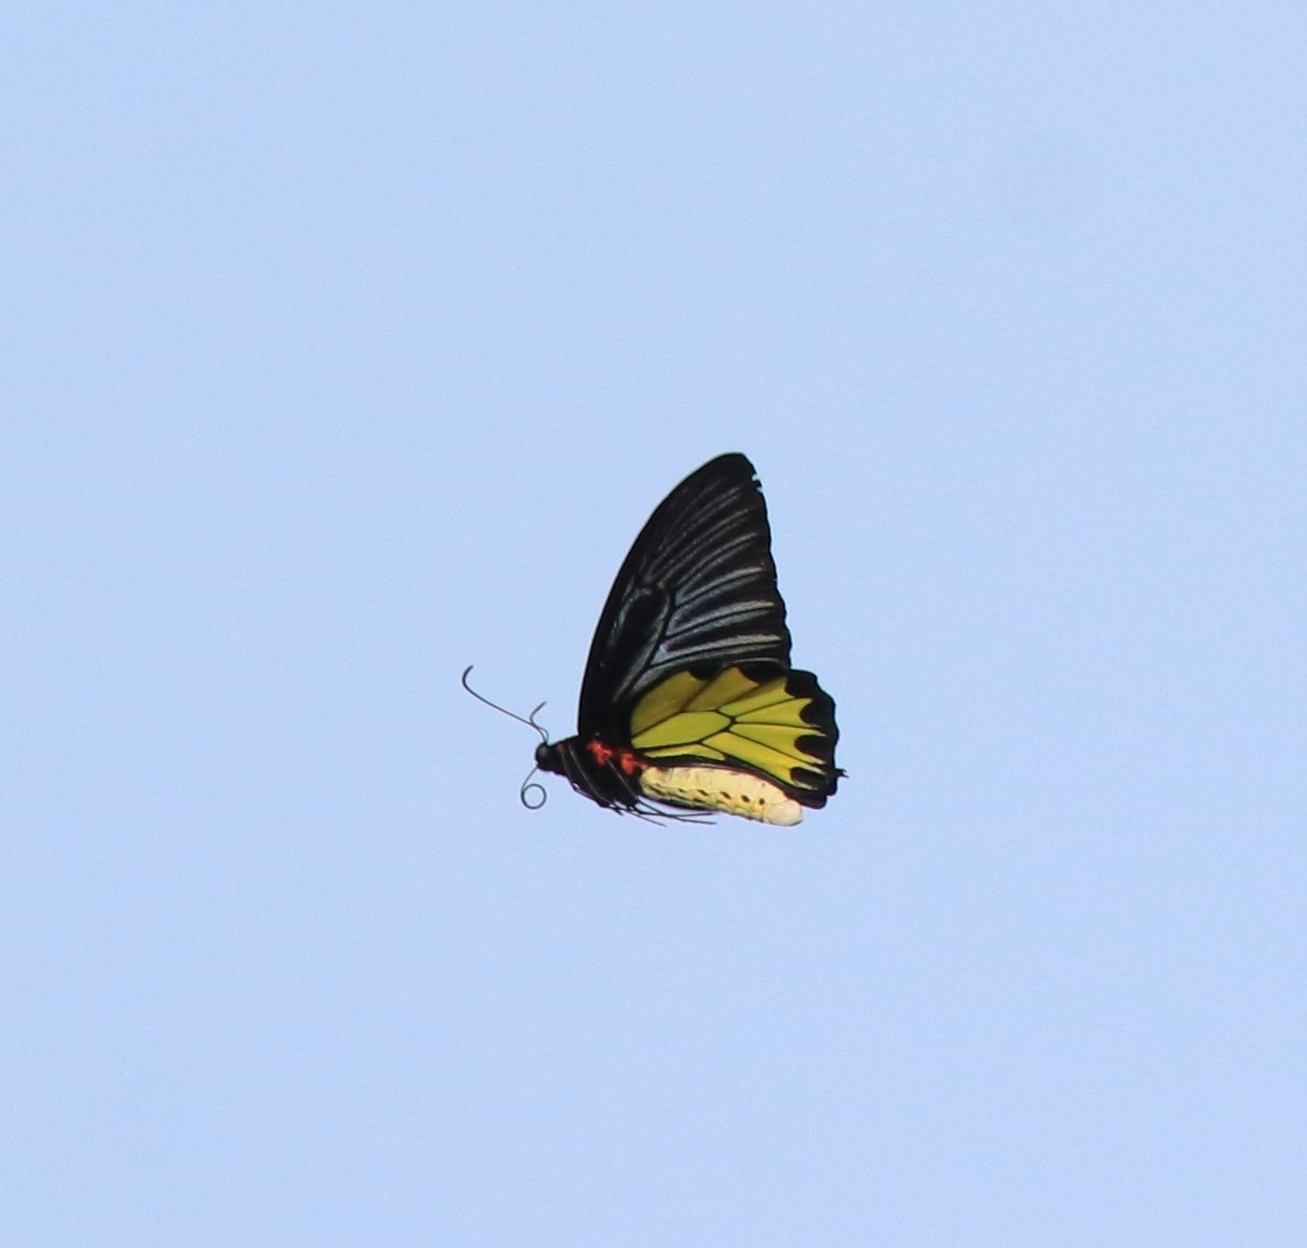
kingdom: Animalia
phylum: Arthropoda
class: Insecta
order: Lepidoptera
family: Papilionidae
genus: Troides
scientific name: Troides minos
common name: Malabar birdwing
